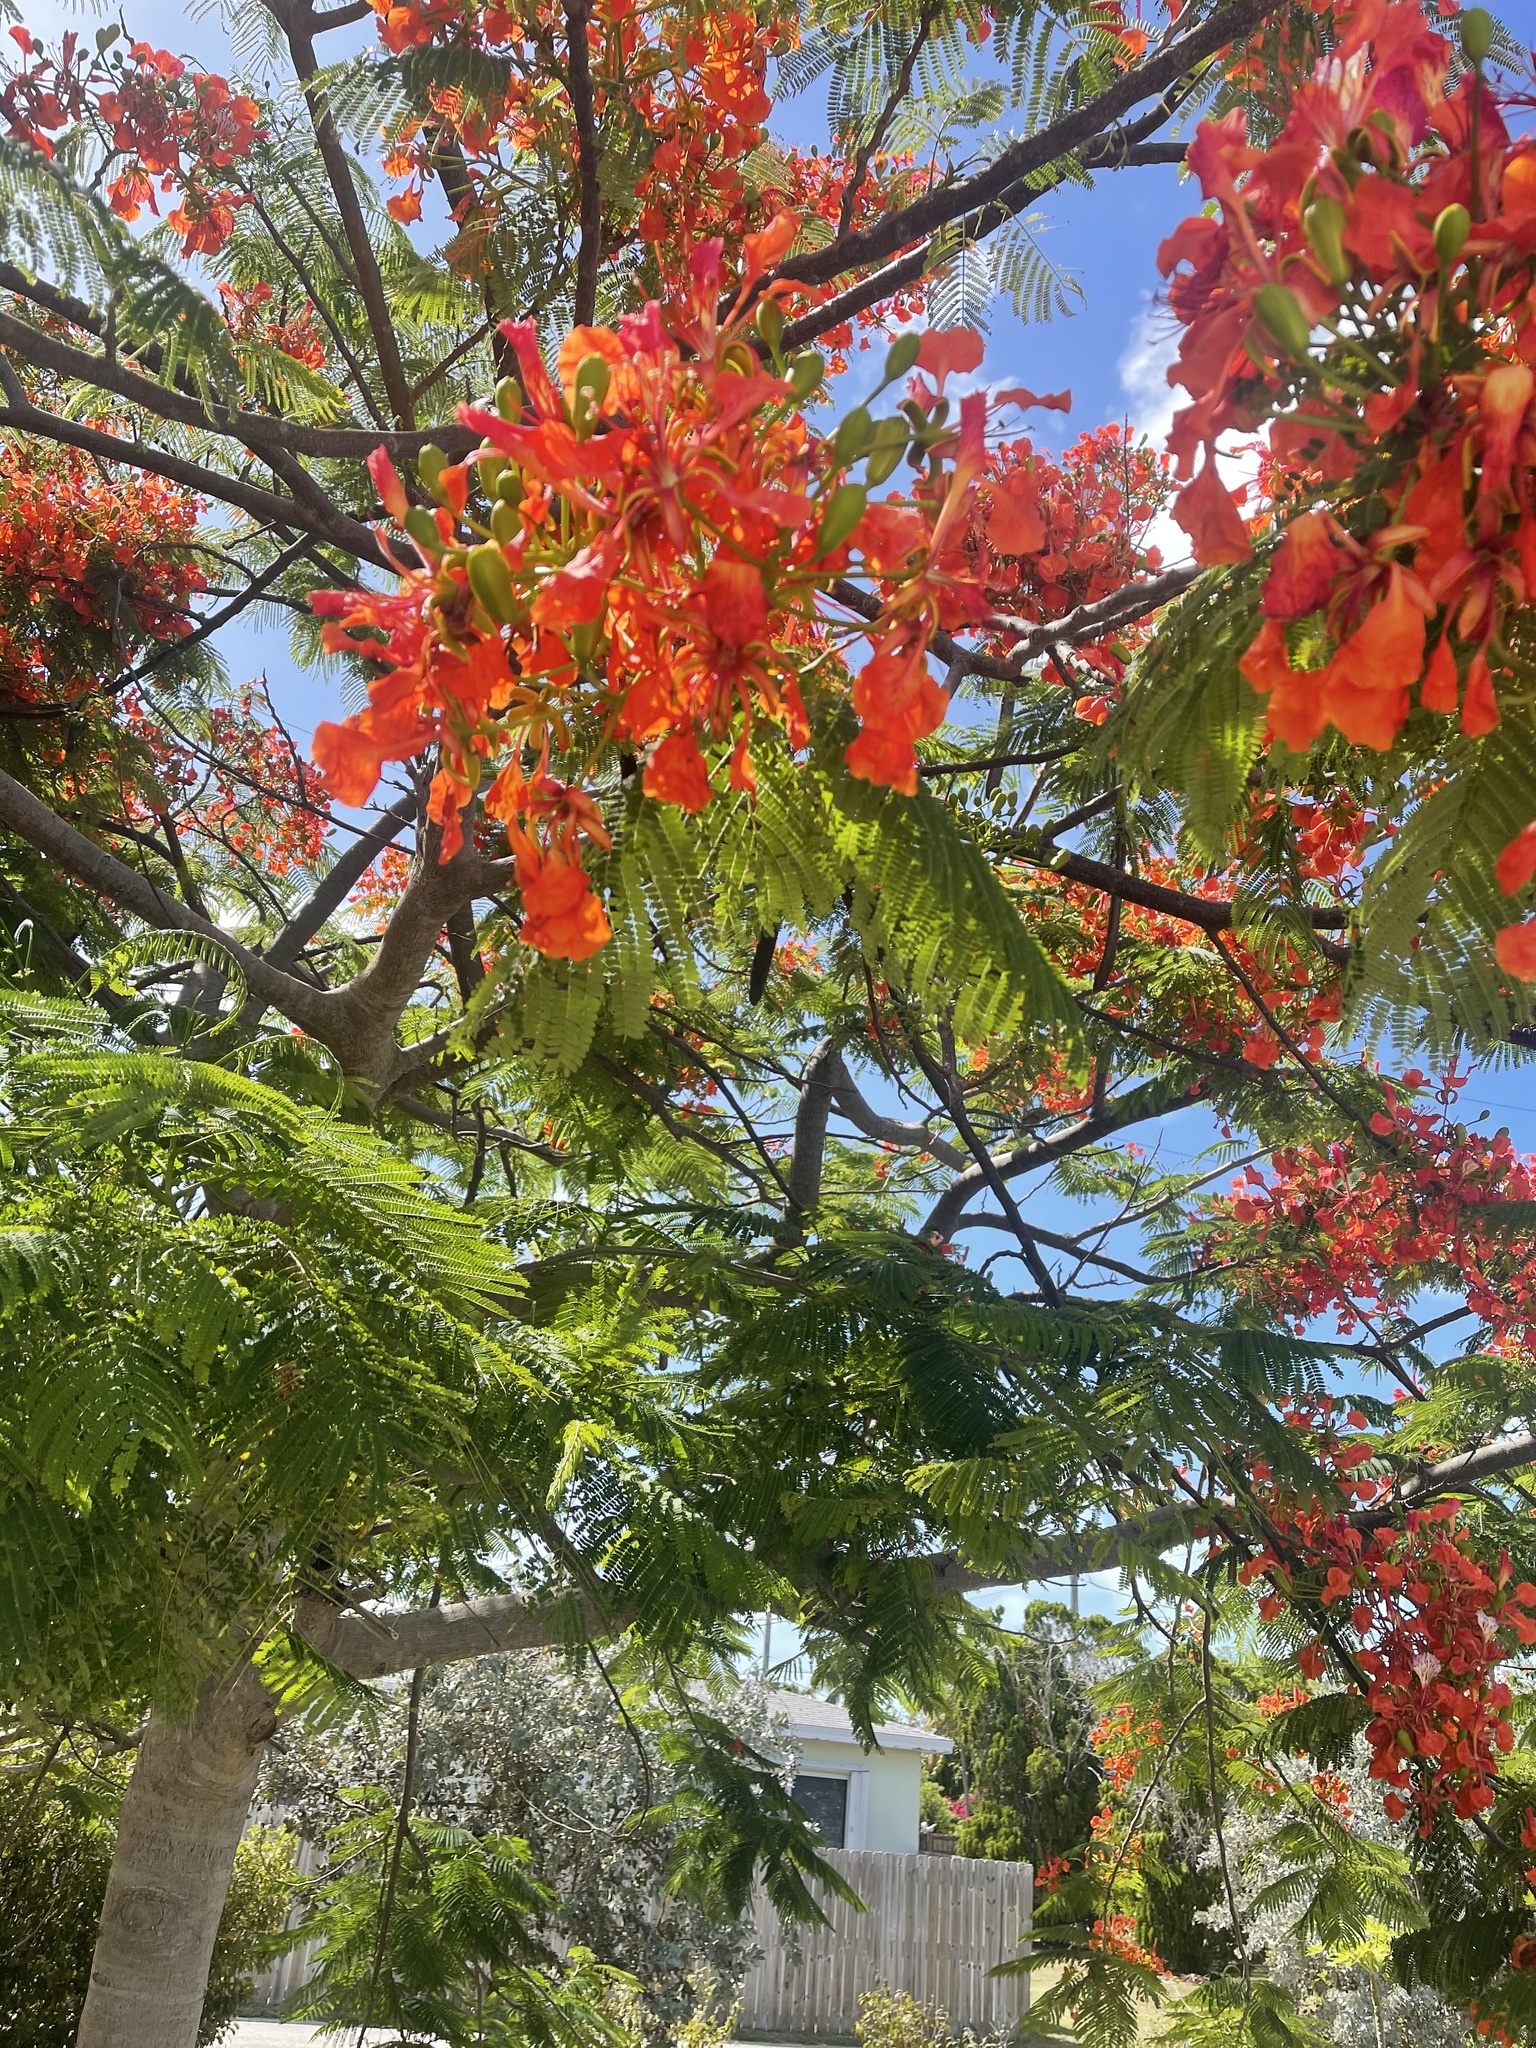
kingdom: Plantae
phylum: Tracheophyta
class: Magnoliopsida
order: Fabales
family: Fabaceae
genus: Delonix
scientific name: Delonix regia
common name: Royal poinciana
